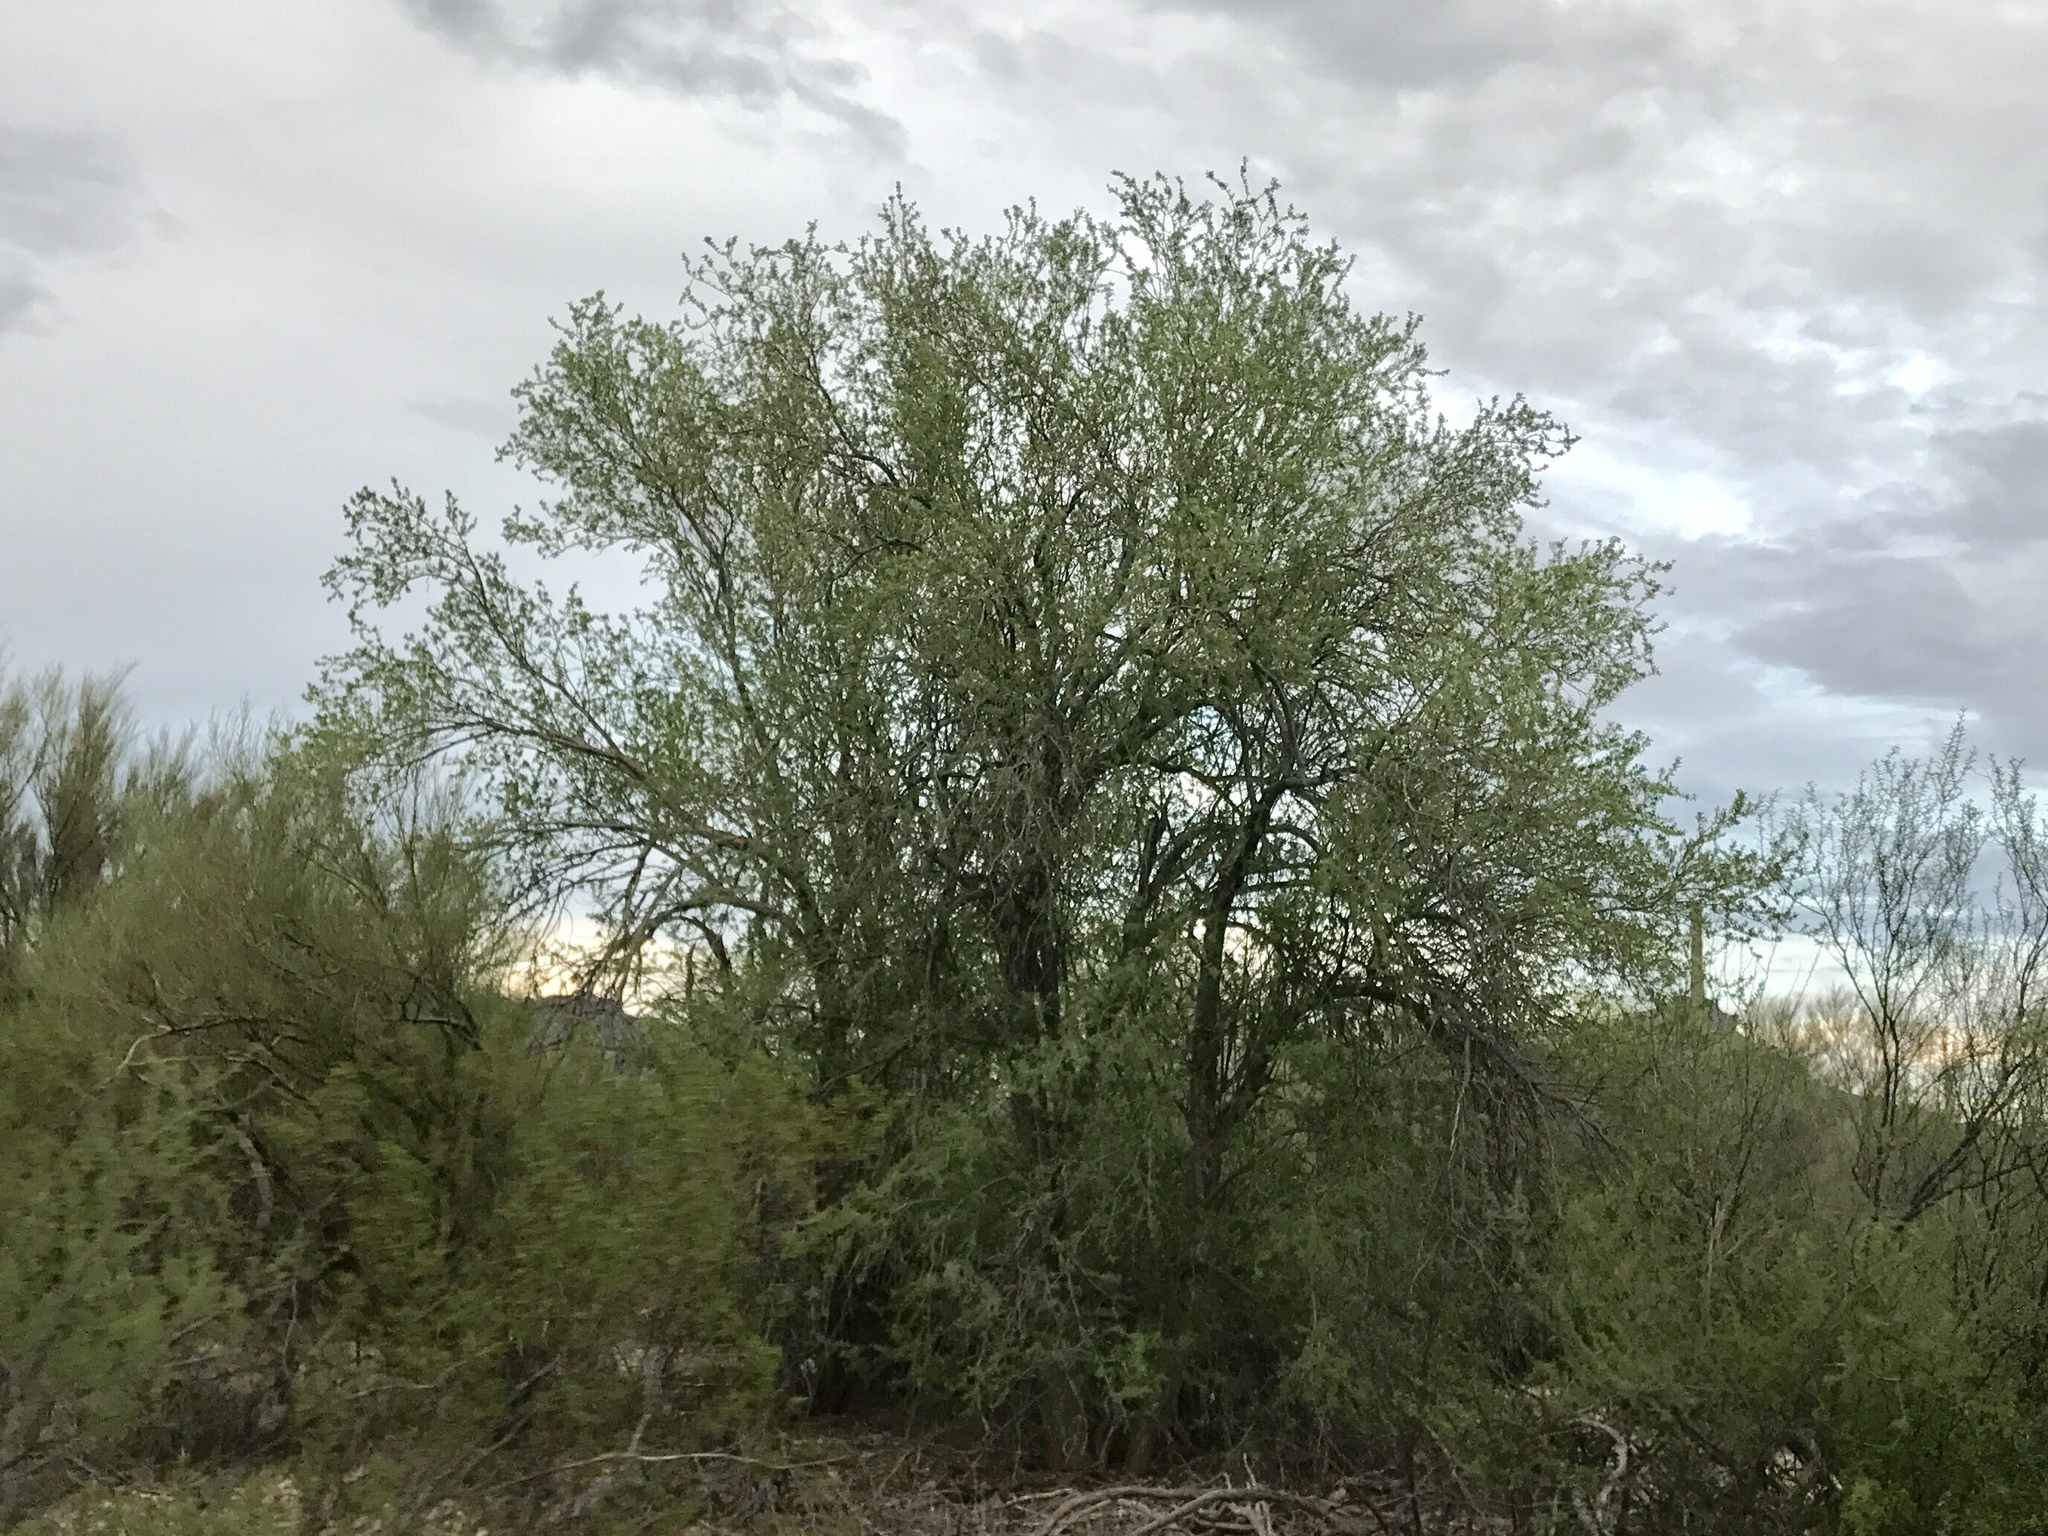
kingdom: Plantae
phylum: Tracheophyta
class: Magnoliopsida
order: Fabales
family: Fabaceae
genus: Olneya
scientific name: Olneya tesota
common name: Desert ironwood
